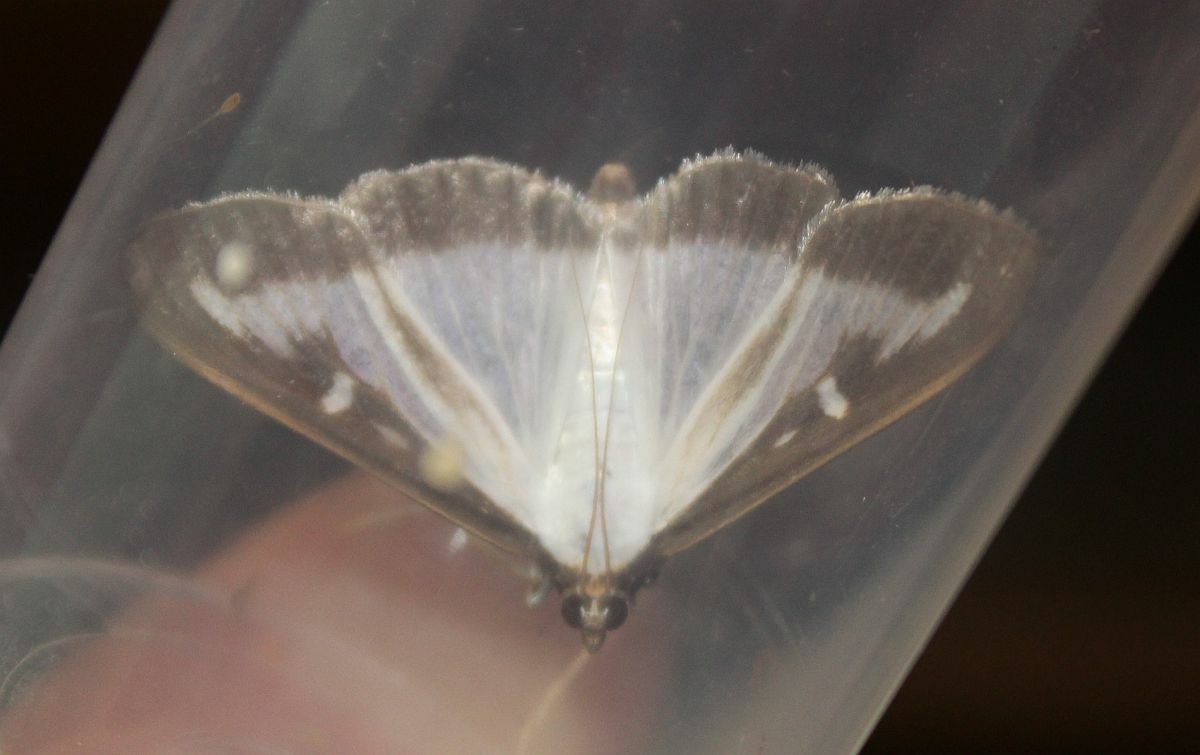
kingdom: Animalia
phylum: Arthropoda
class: Insecta
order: Lepidoptera
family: Crambidae
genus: Cydalima
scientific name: Cydalima perspectalis
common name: Box tree moth
